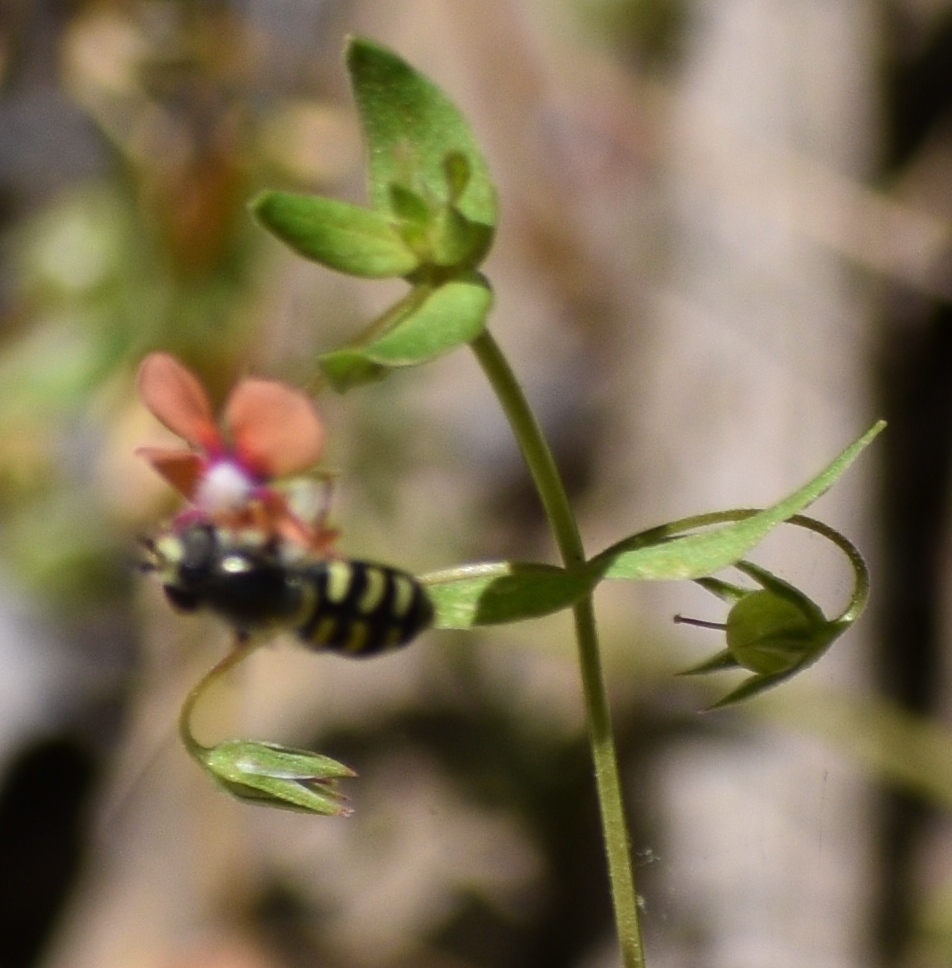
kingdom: Animalia
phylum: Arthropoda
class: Insecta
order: Diptera
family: Syrphidae
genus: Eupeodes
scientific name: Eupeodes volucris
